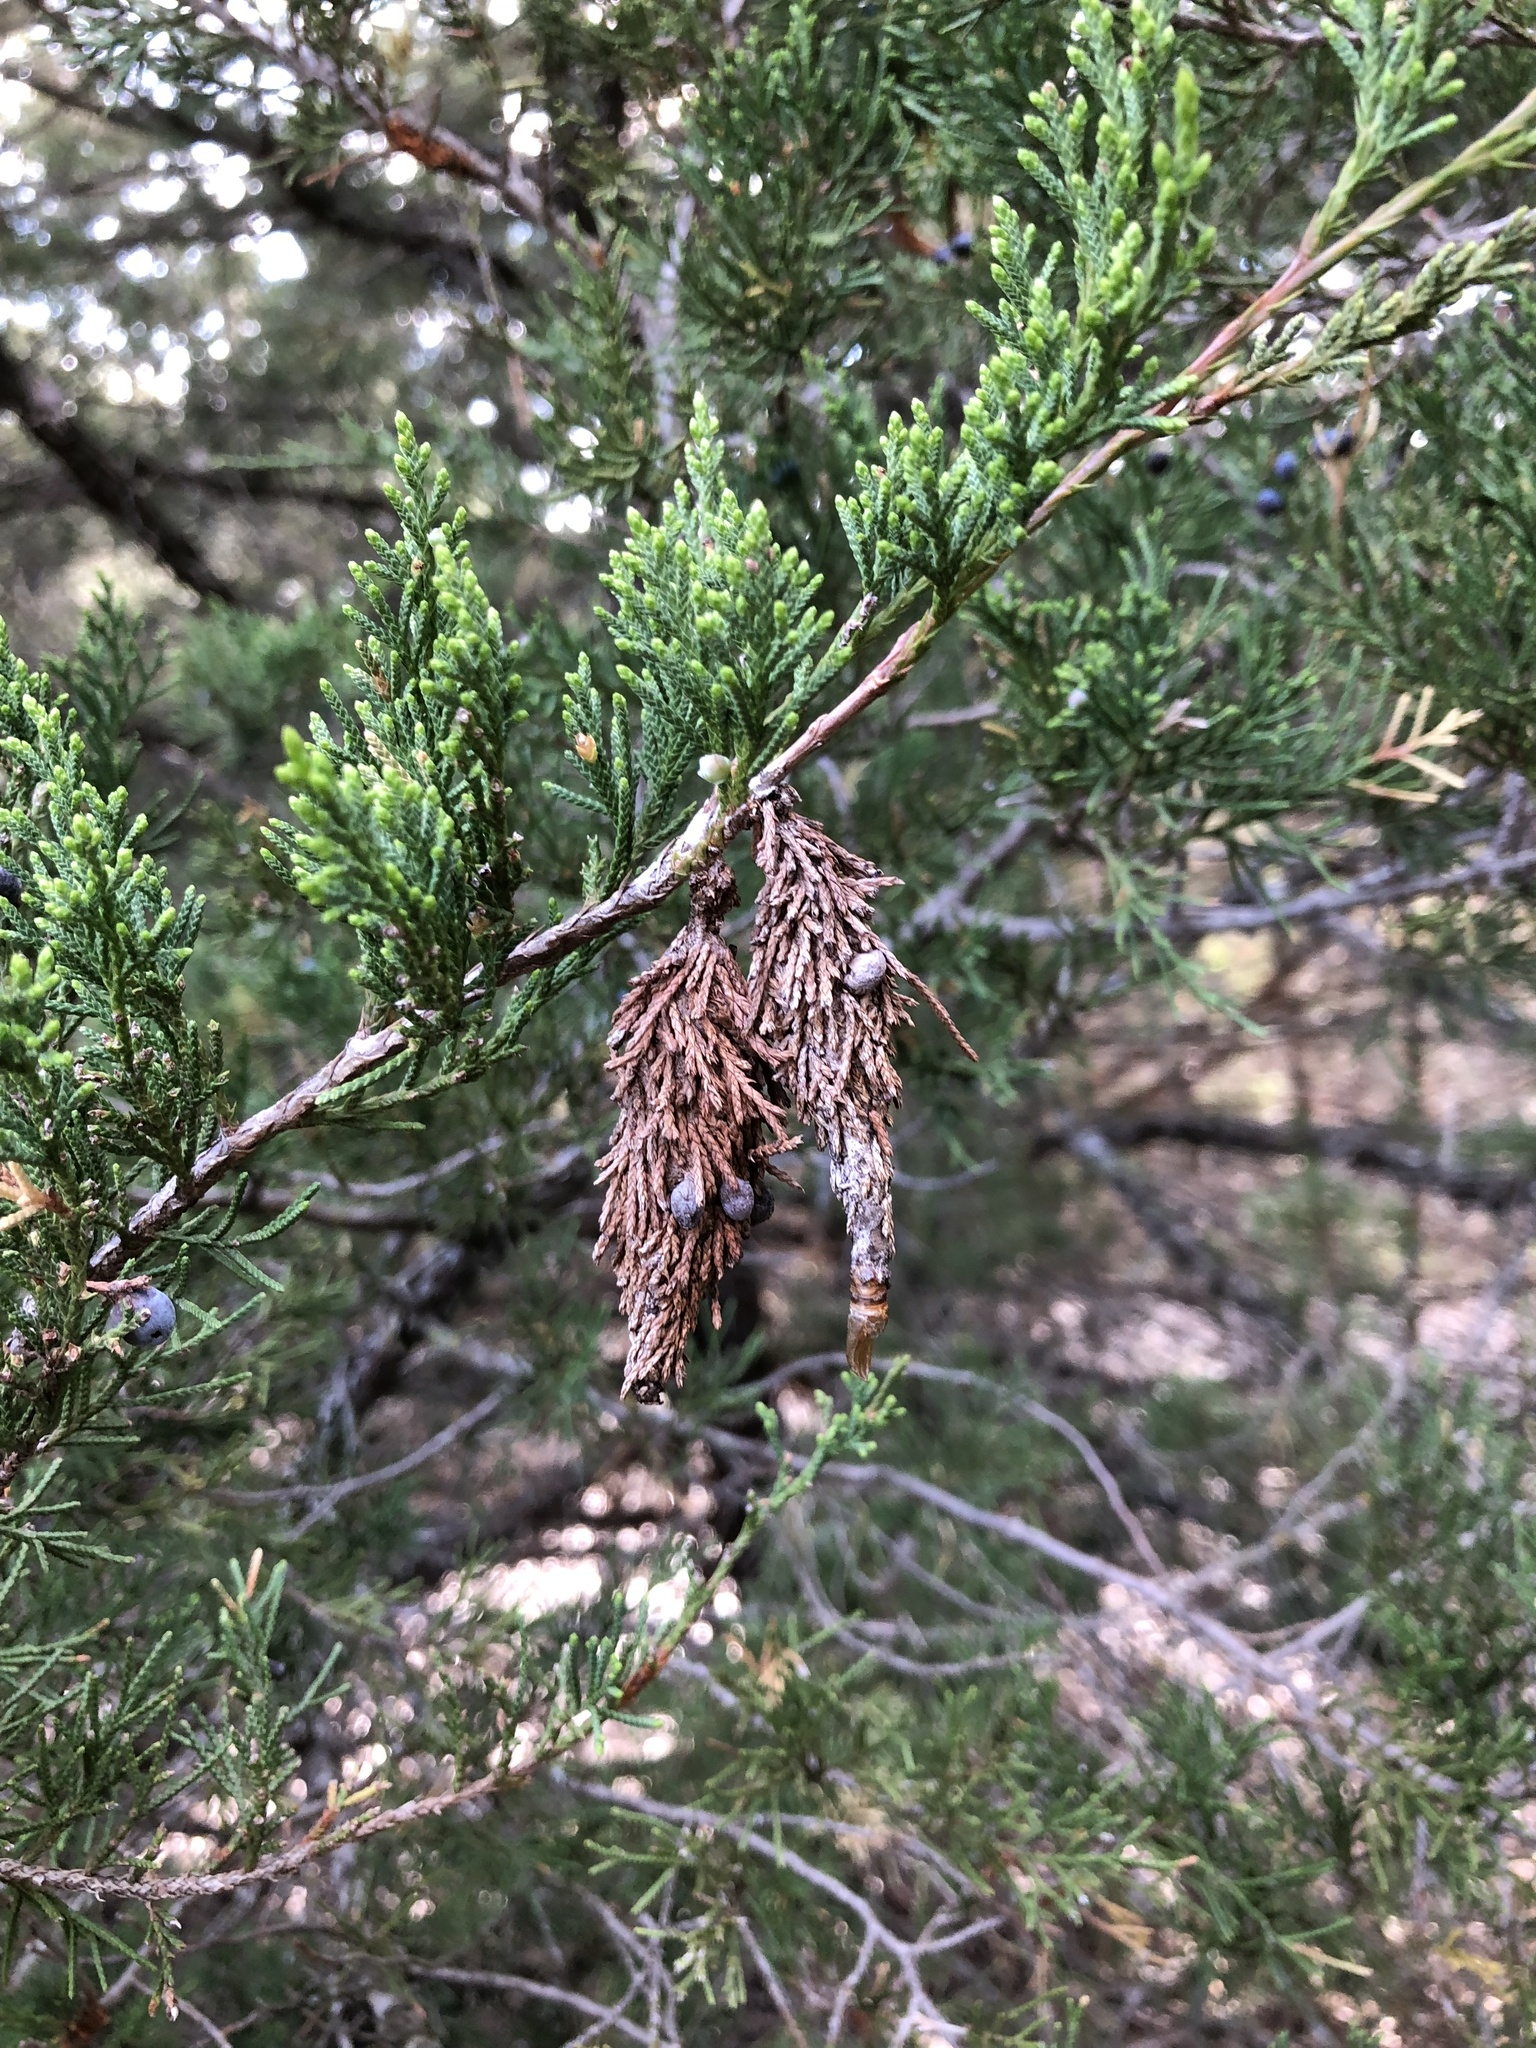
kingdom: Animalia
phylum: Arthropoda
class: Insecta
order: Lepidoptera
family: Psychidae
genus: Thyridopteryx
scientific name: Thyridopteryx ephemeraeformis
